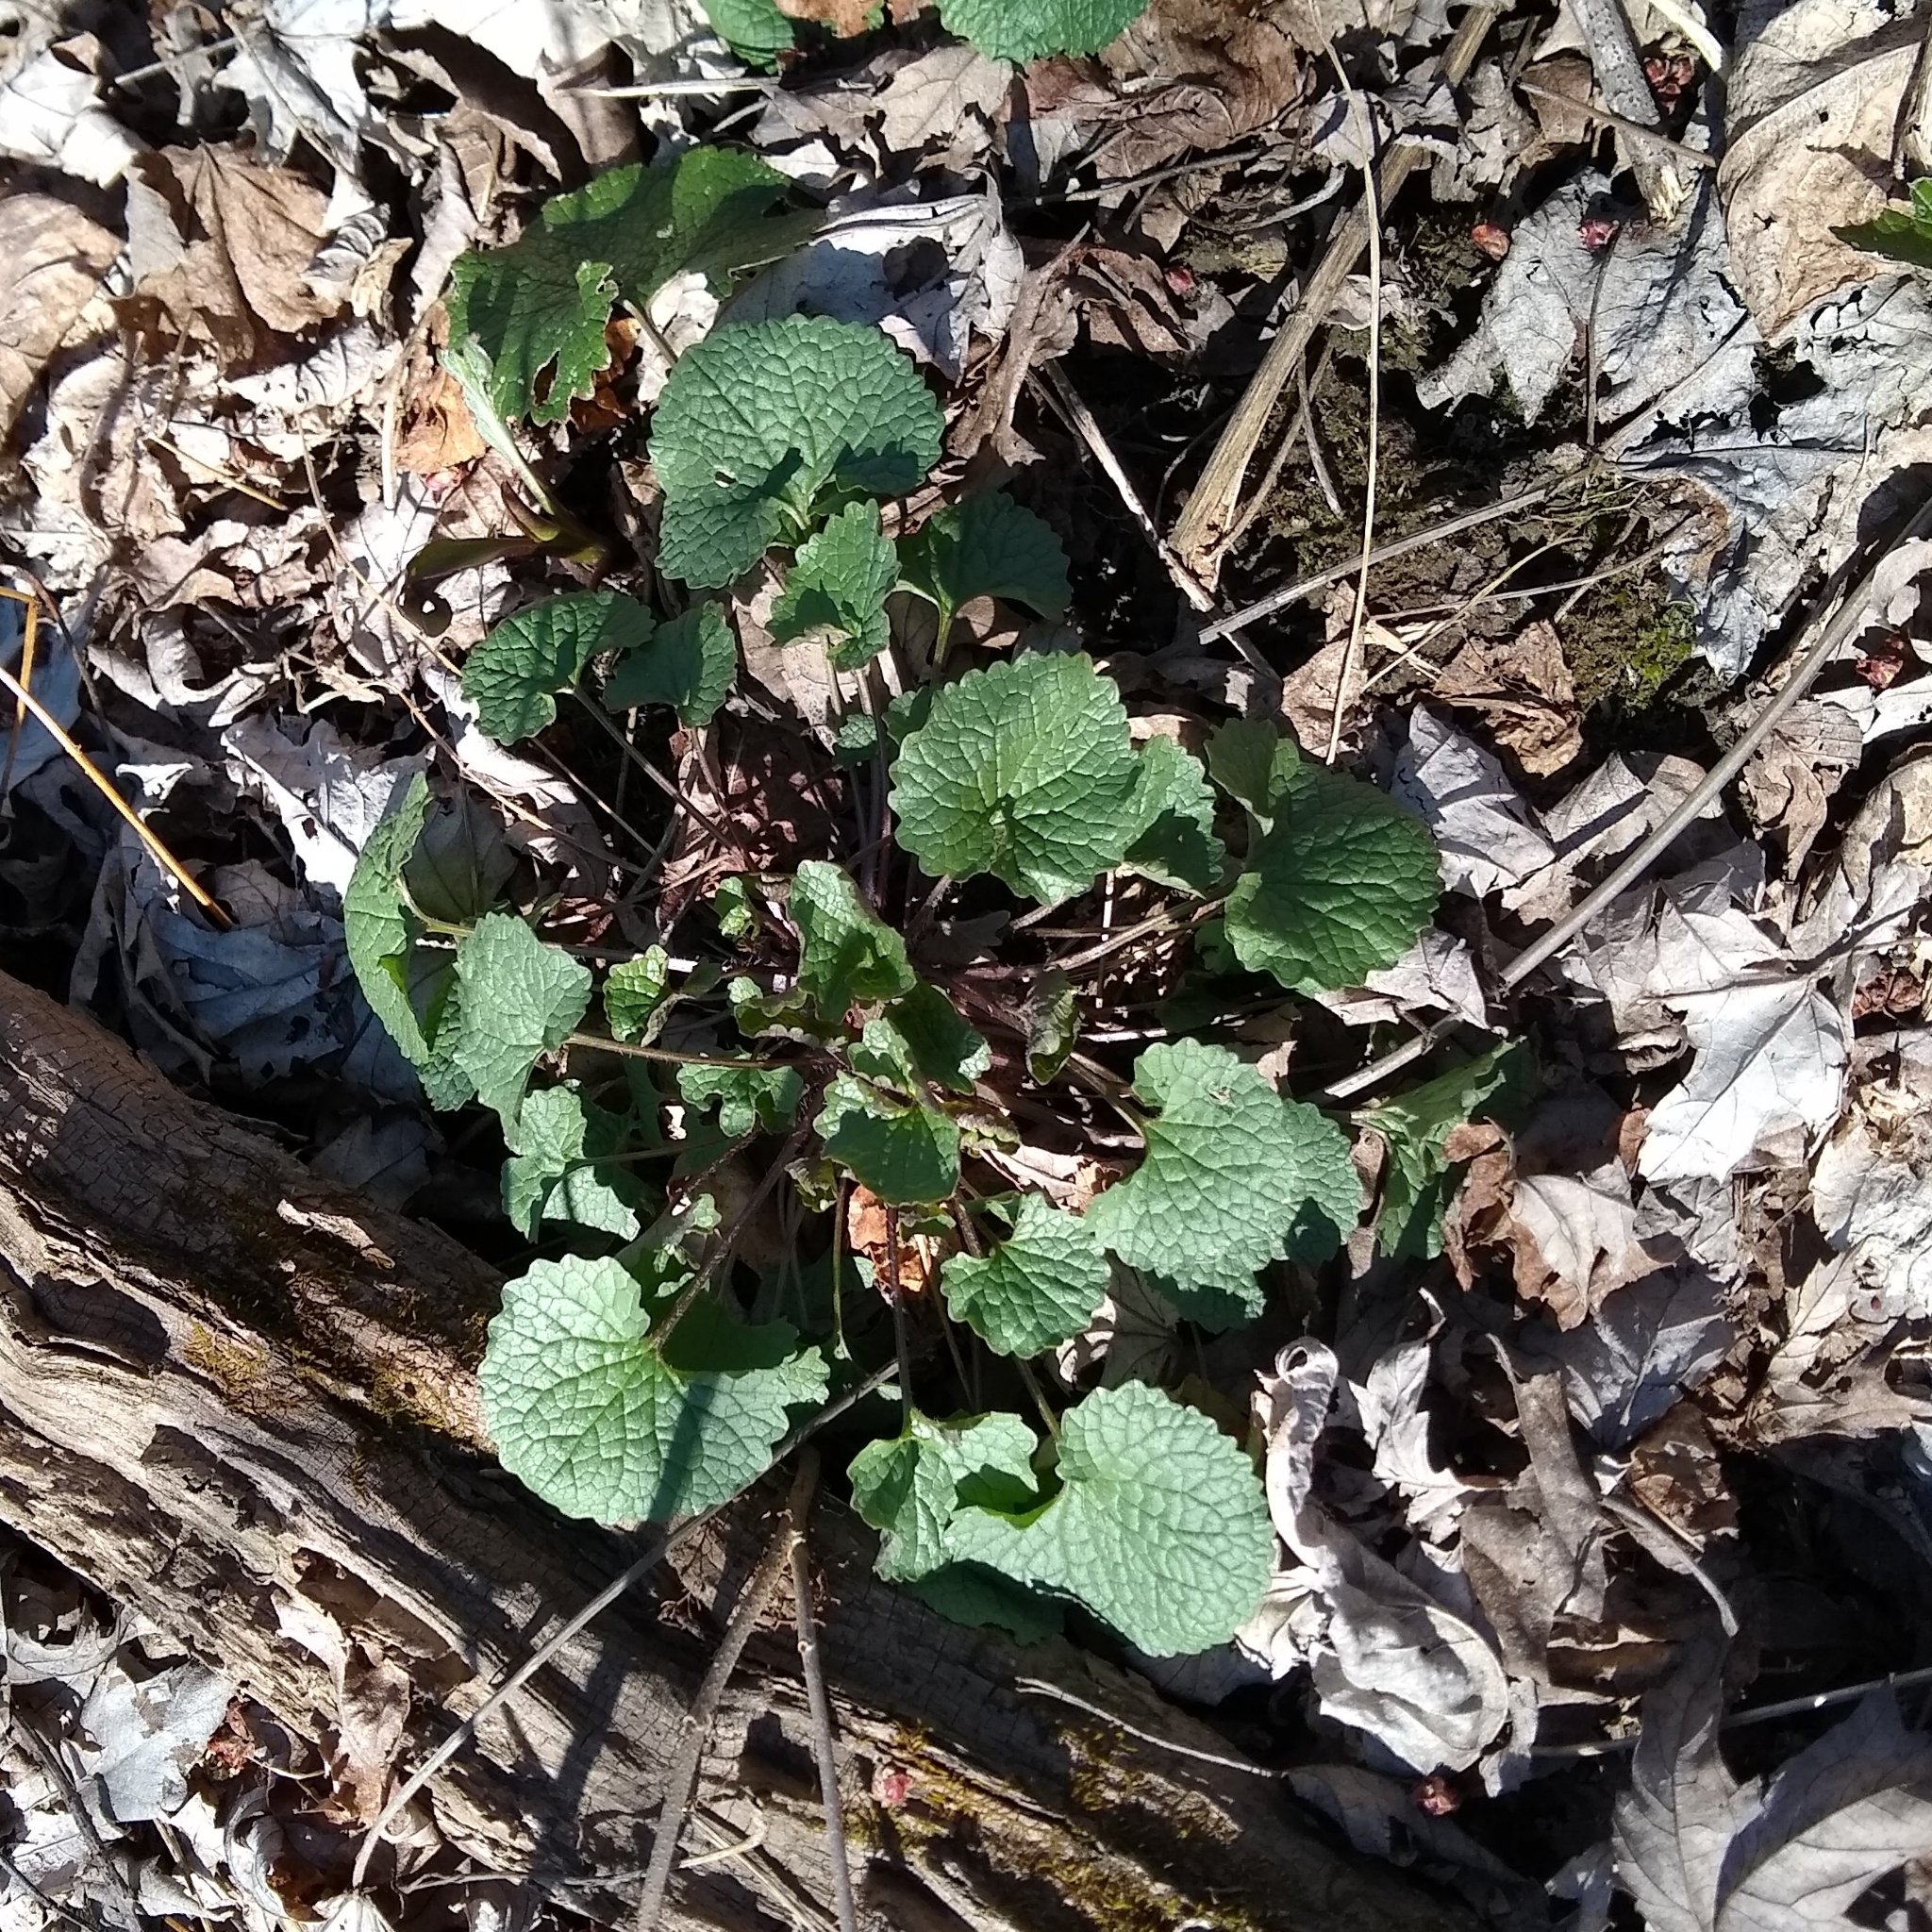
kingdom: Plantae
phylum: Tracheophyta
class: Magnoliopsida
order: Brassicales
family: Brassicaceae
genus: Alliaria
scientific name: Alliaria petiolata
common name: Garlic mustard
